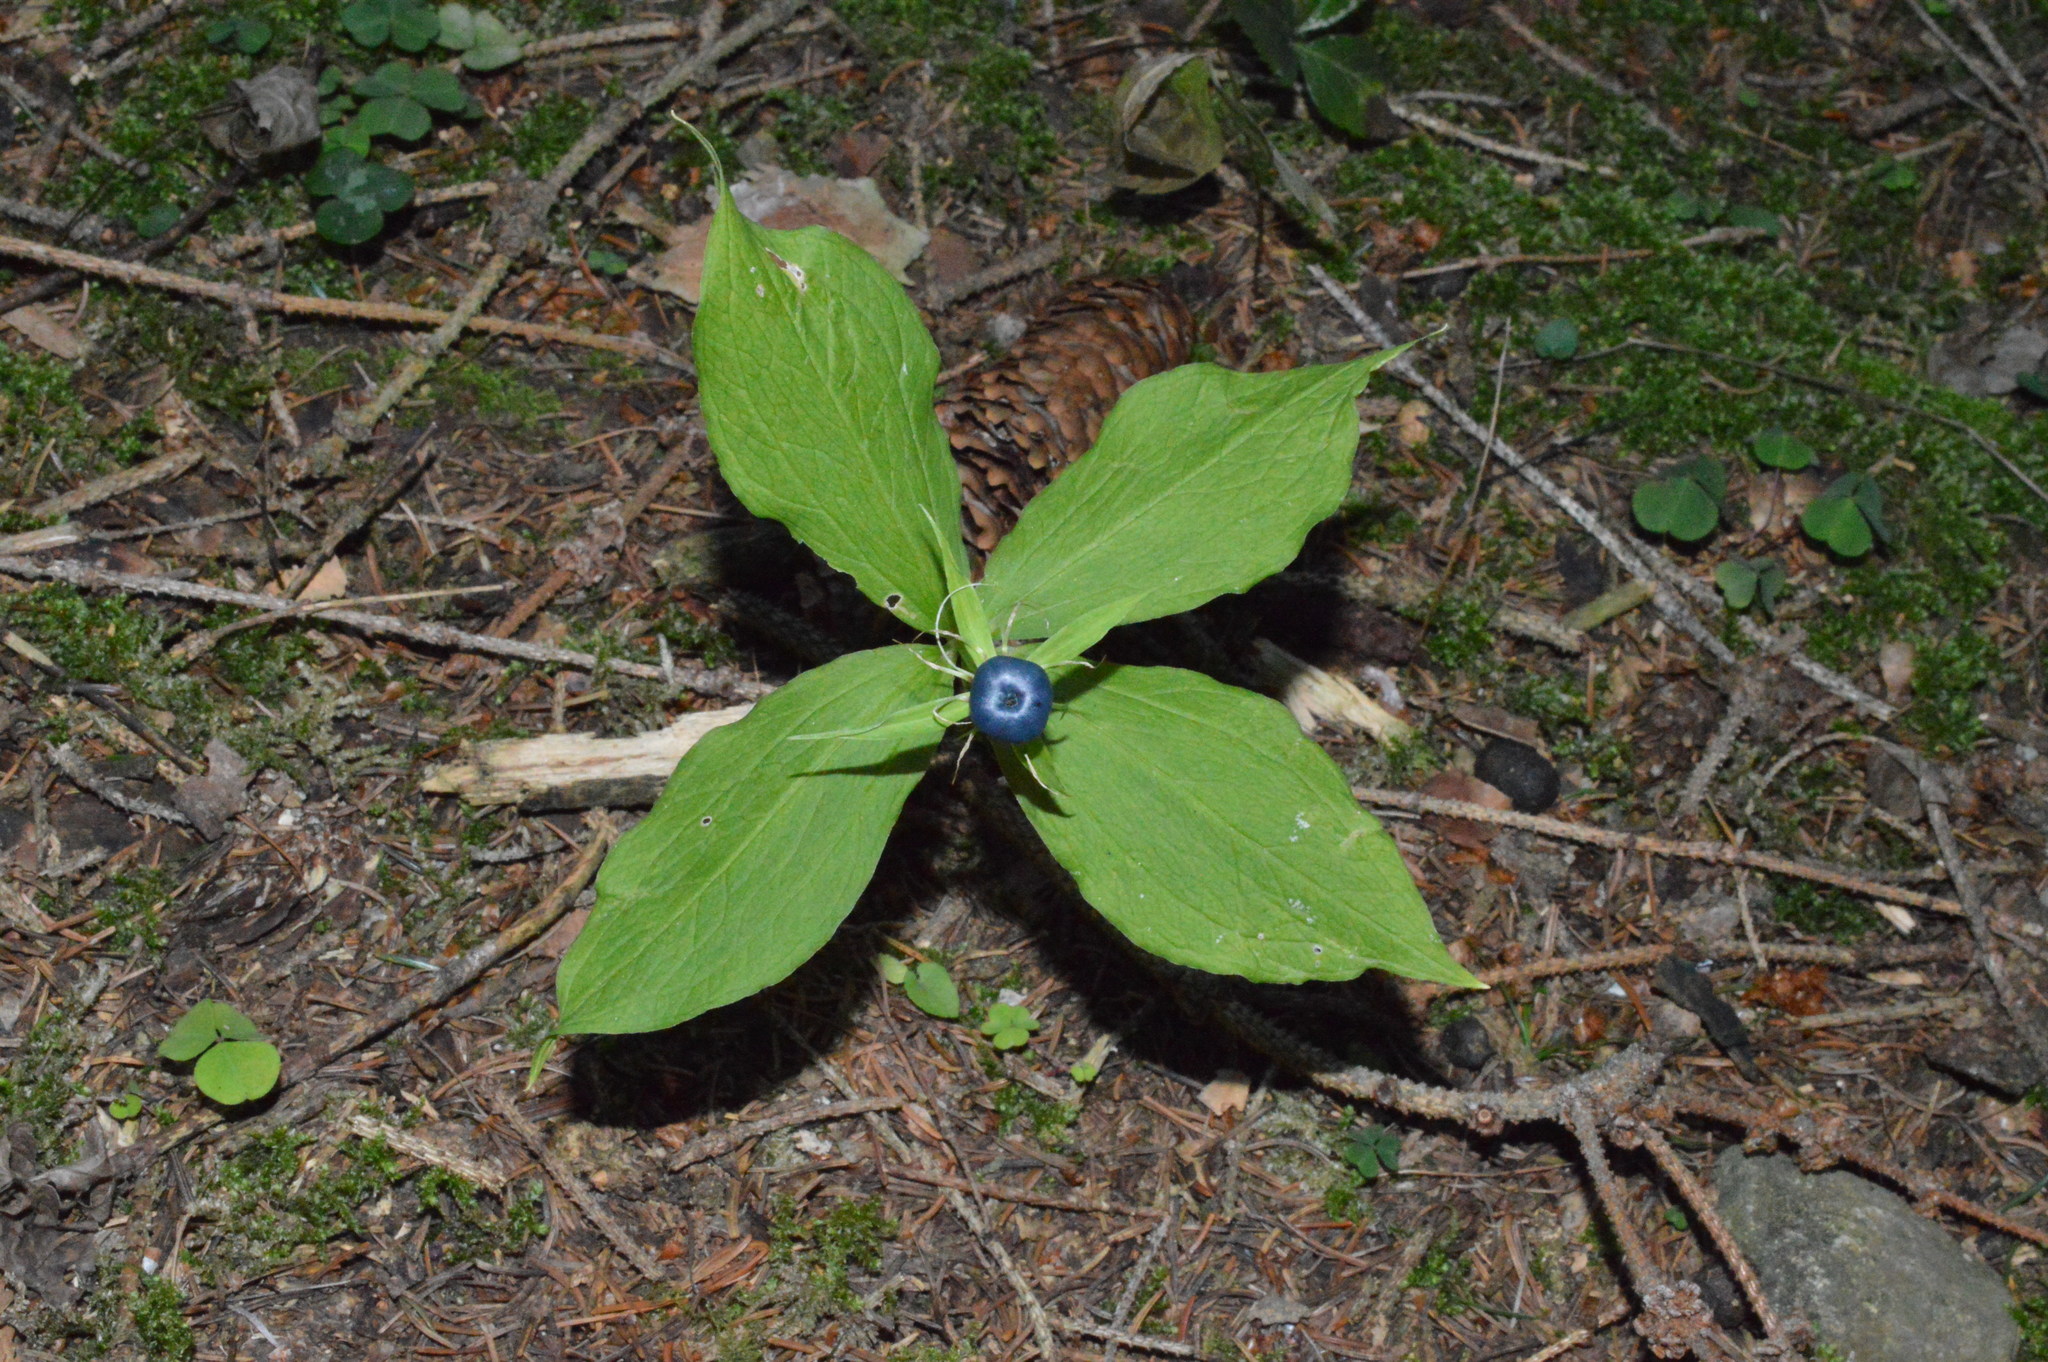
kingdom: Plantae
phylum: Tracheophyta
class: Liliopsida
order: Liliales
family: Melanthiaceae
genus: Paris
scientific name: Paris quadrifolia
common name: Herb-paris
